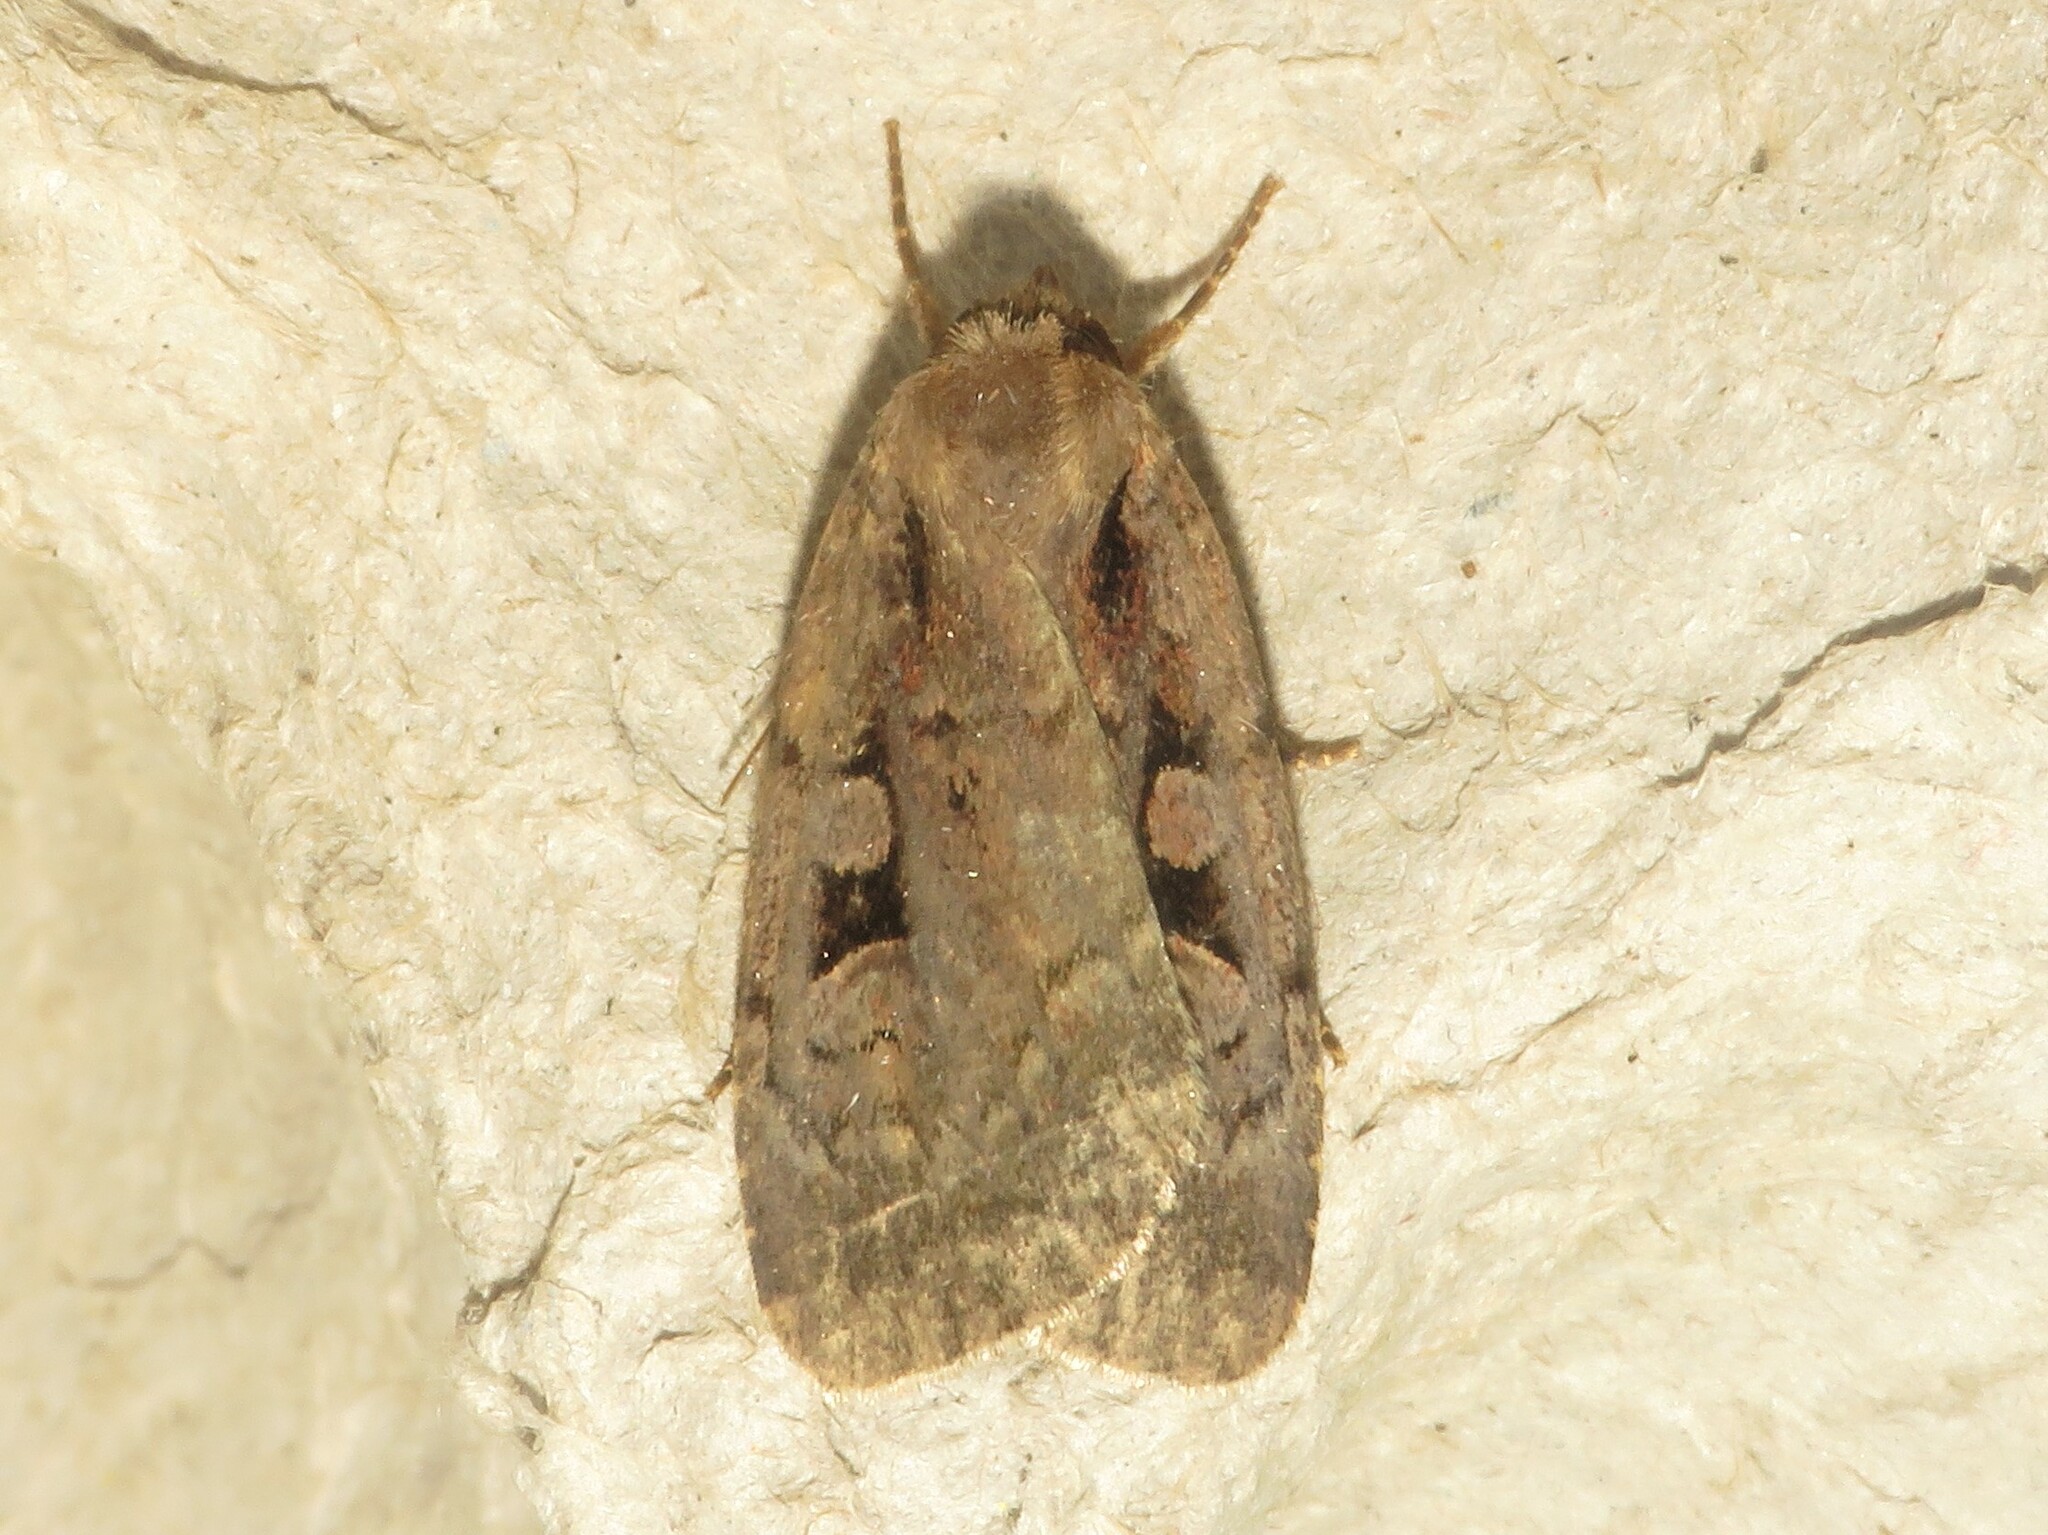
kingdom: Animalia
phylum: Arthropoda
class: Insecta
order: Lepidoptera
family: Noctuidae
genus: Eueretagrotis
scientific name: Eueretagrotis perattentus
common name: Two-spot dart moth
